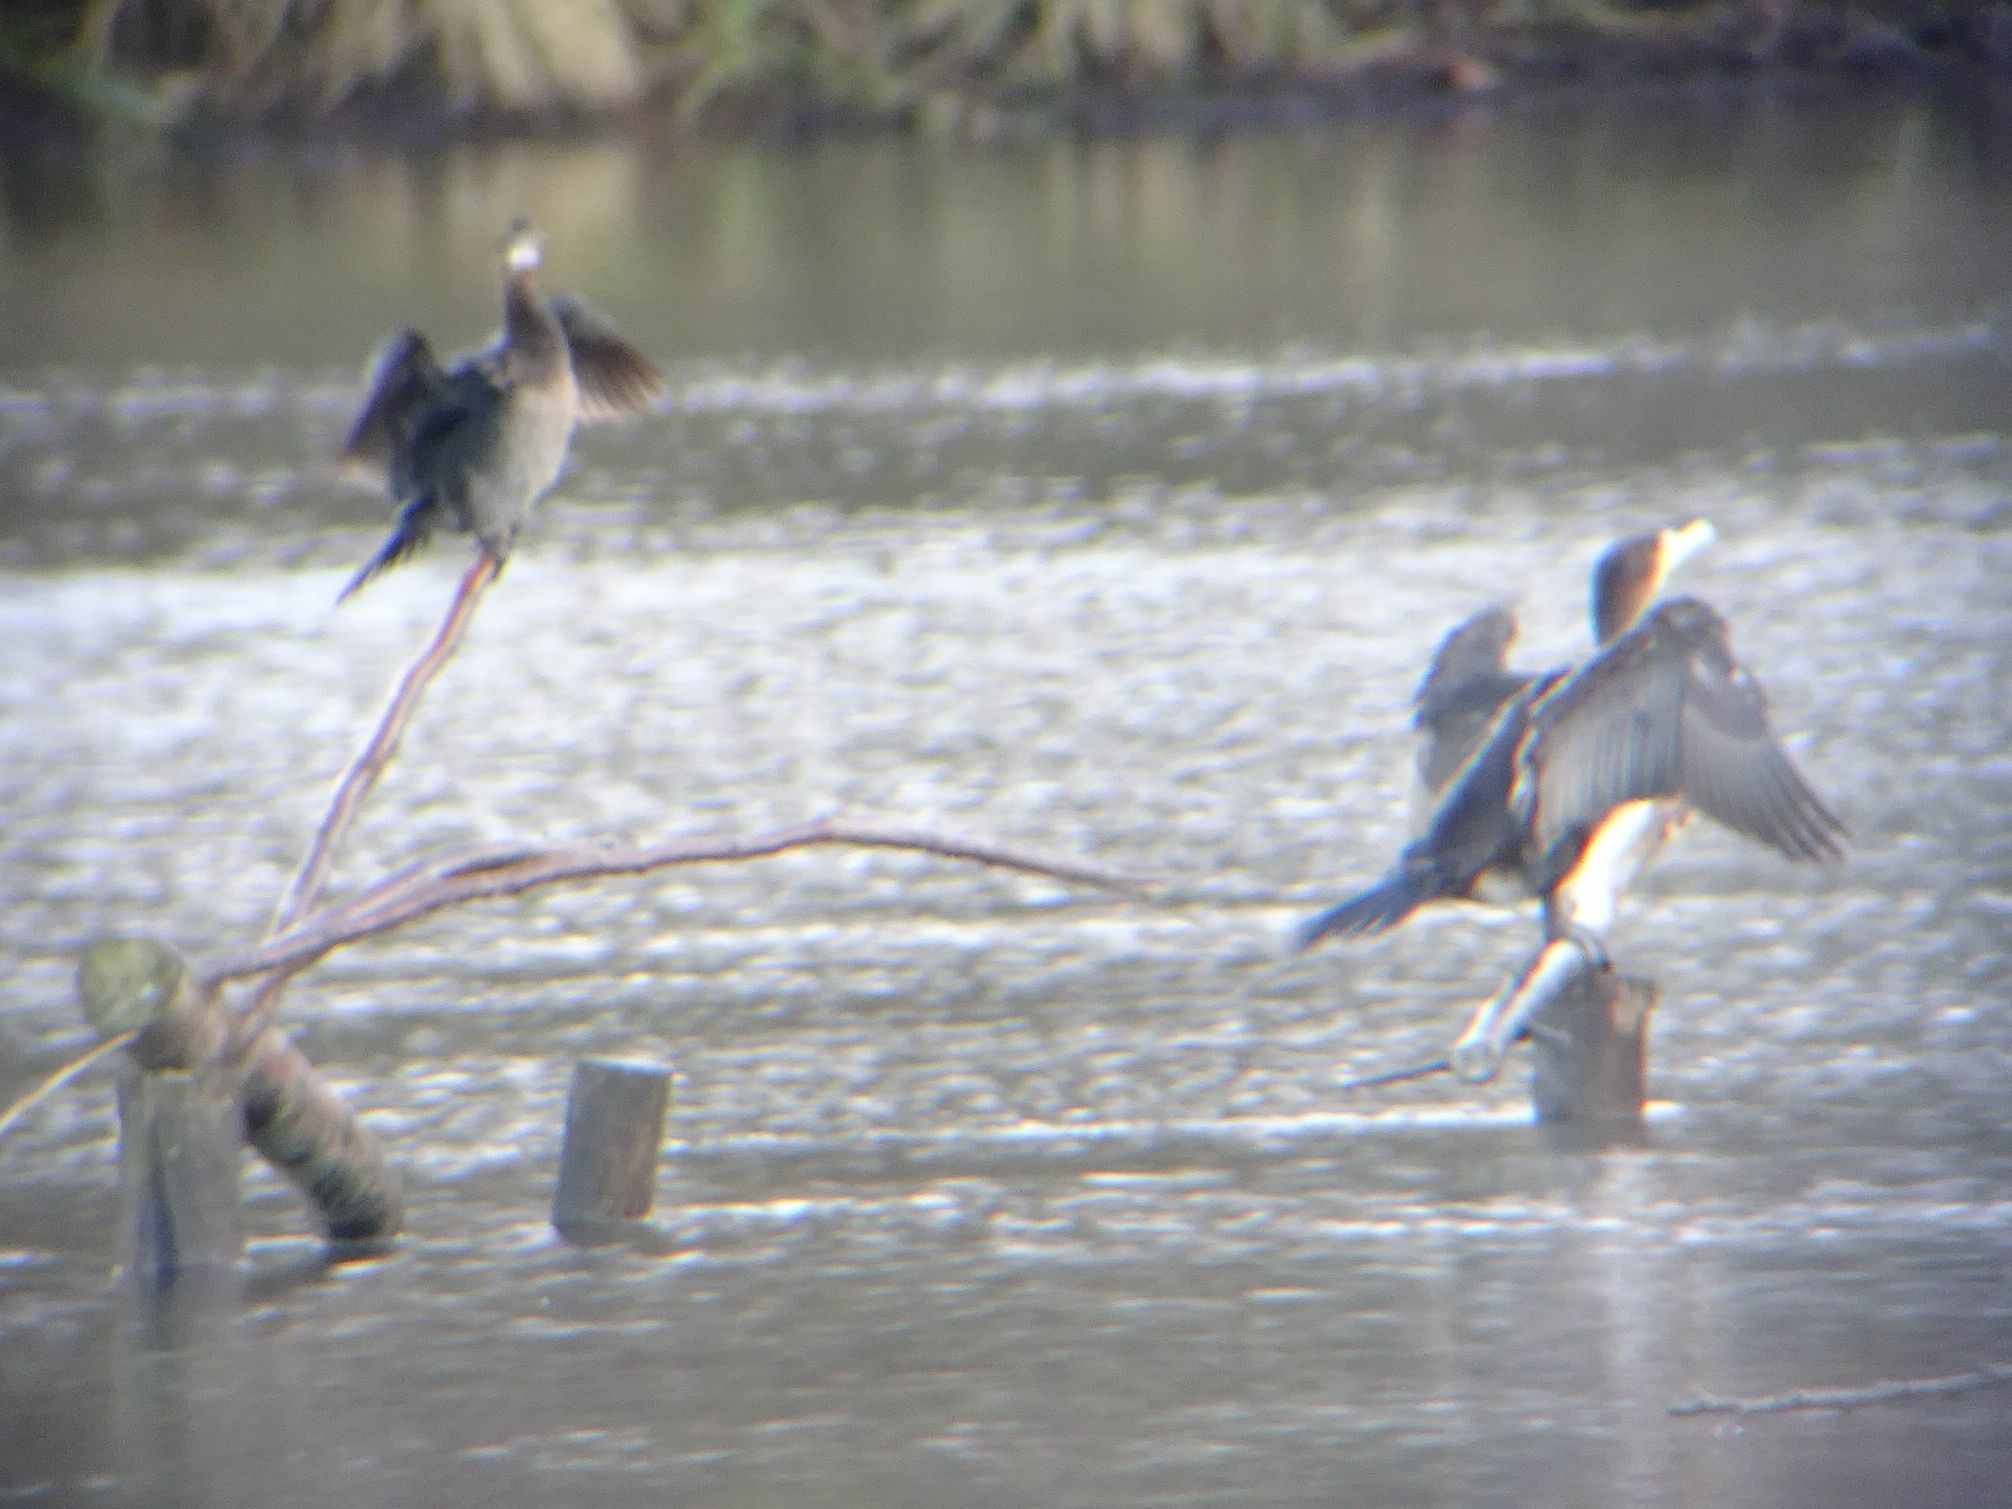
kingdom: Animalia
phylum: Chordata
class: Aves
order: Suliformes
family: Phalacrocoracidae
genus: Microcarbo
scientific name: Microcarbo pygmaeus
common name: Pygmy cormorant
